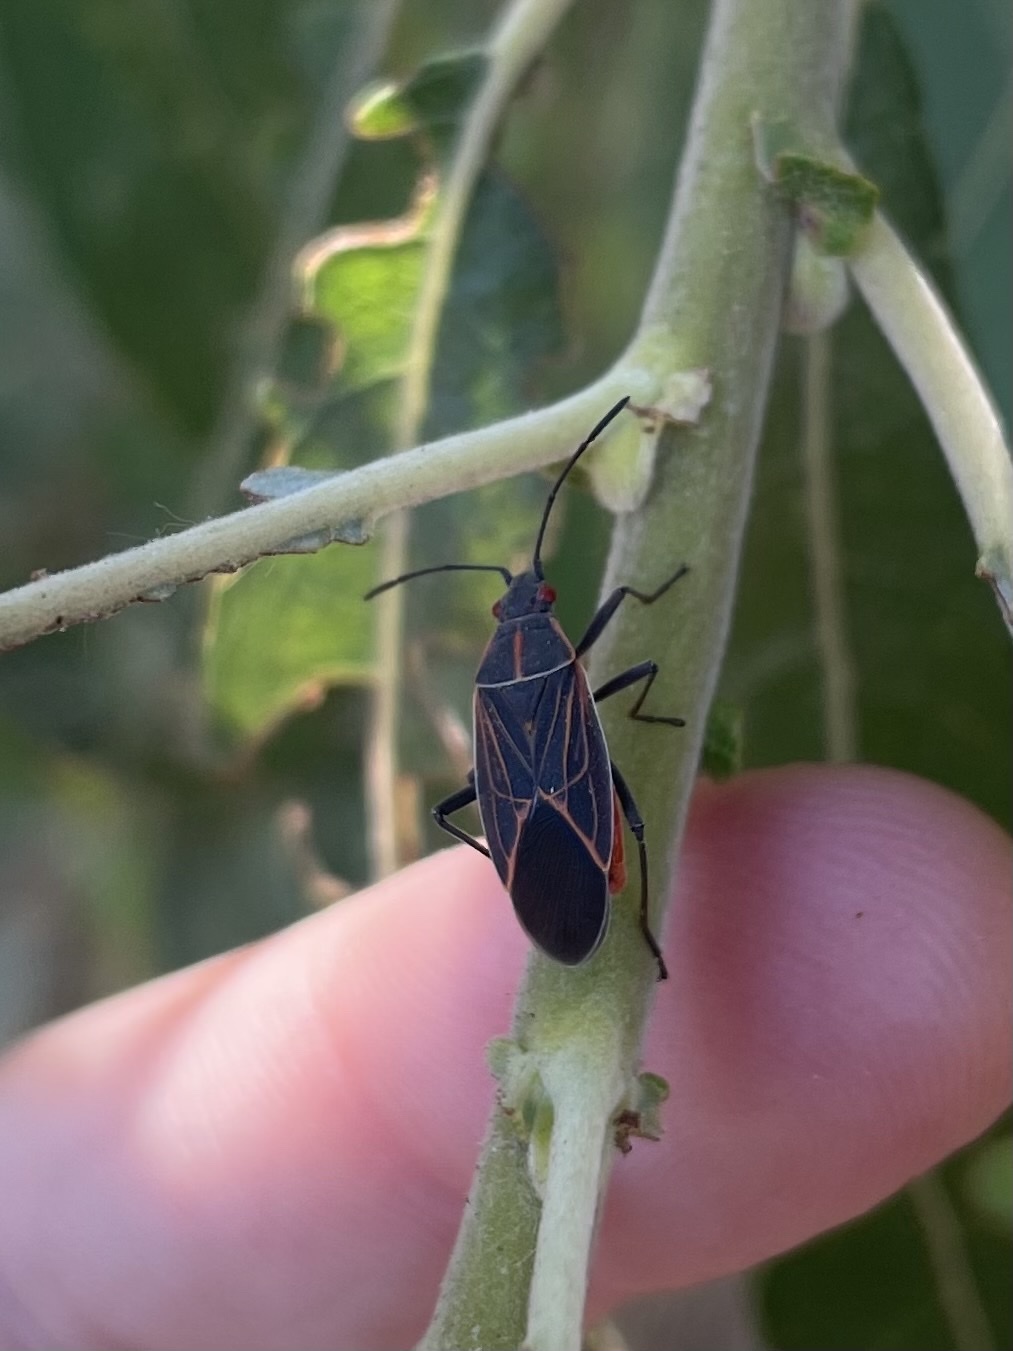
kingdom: Animalia
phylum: Arthropoda
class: Insecta
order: Hemiptera
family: Rhopalidae
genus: Boisea
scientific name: Boisea rubrolineata
